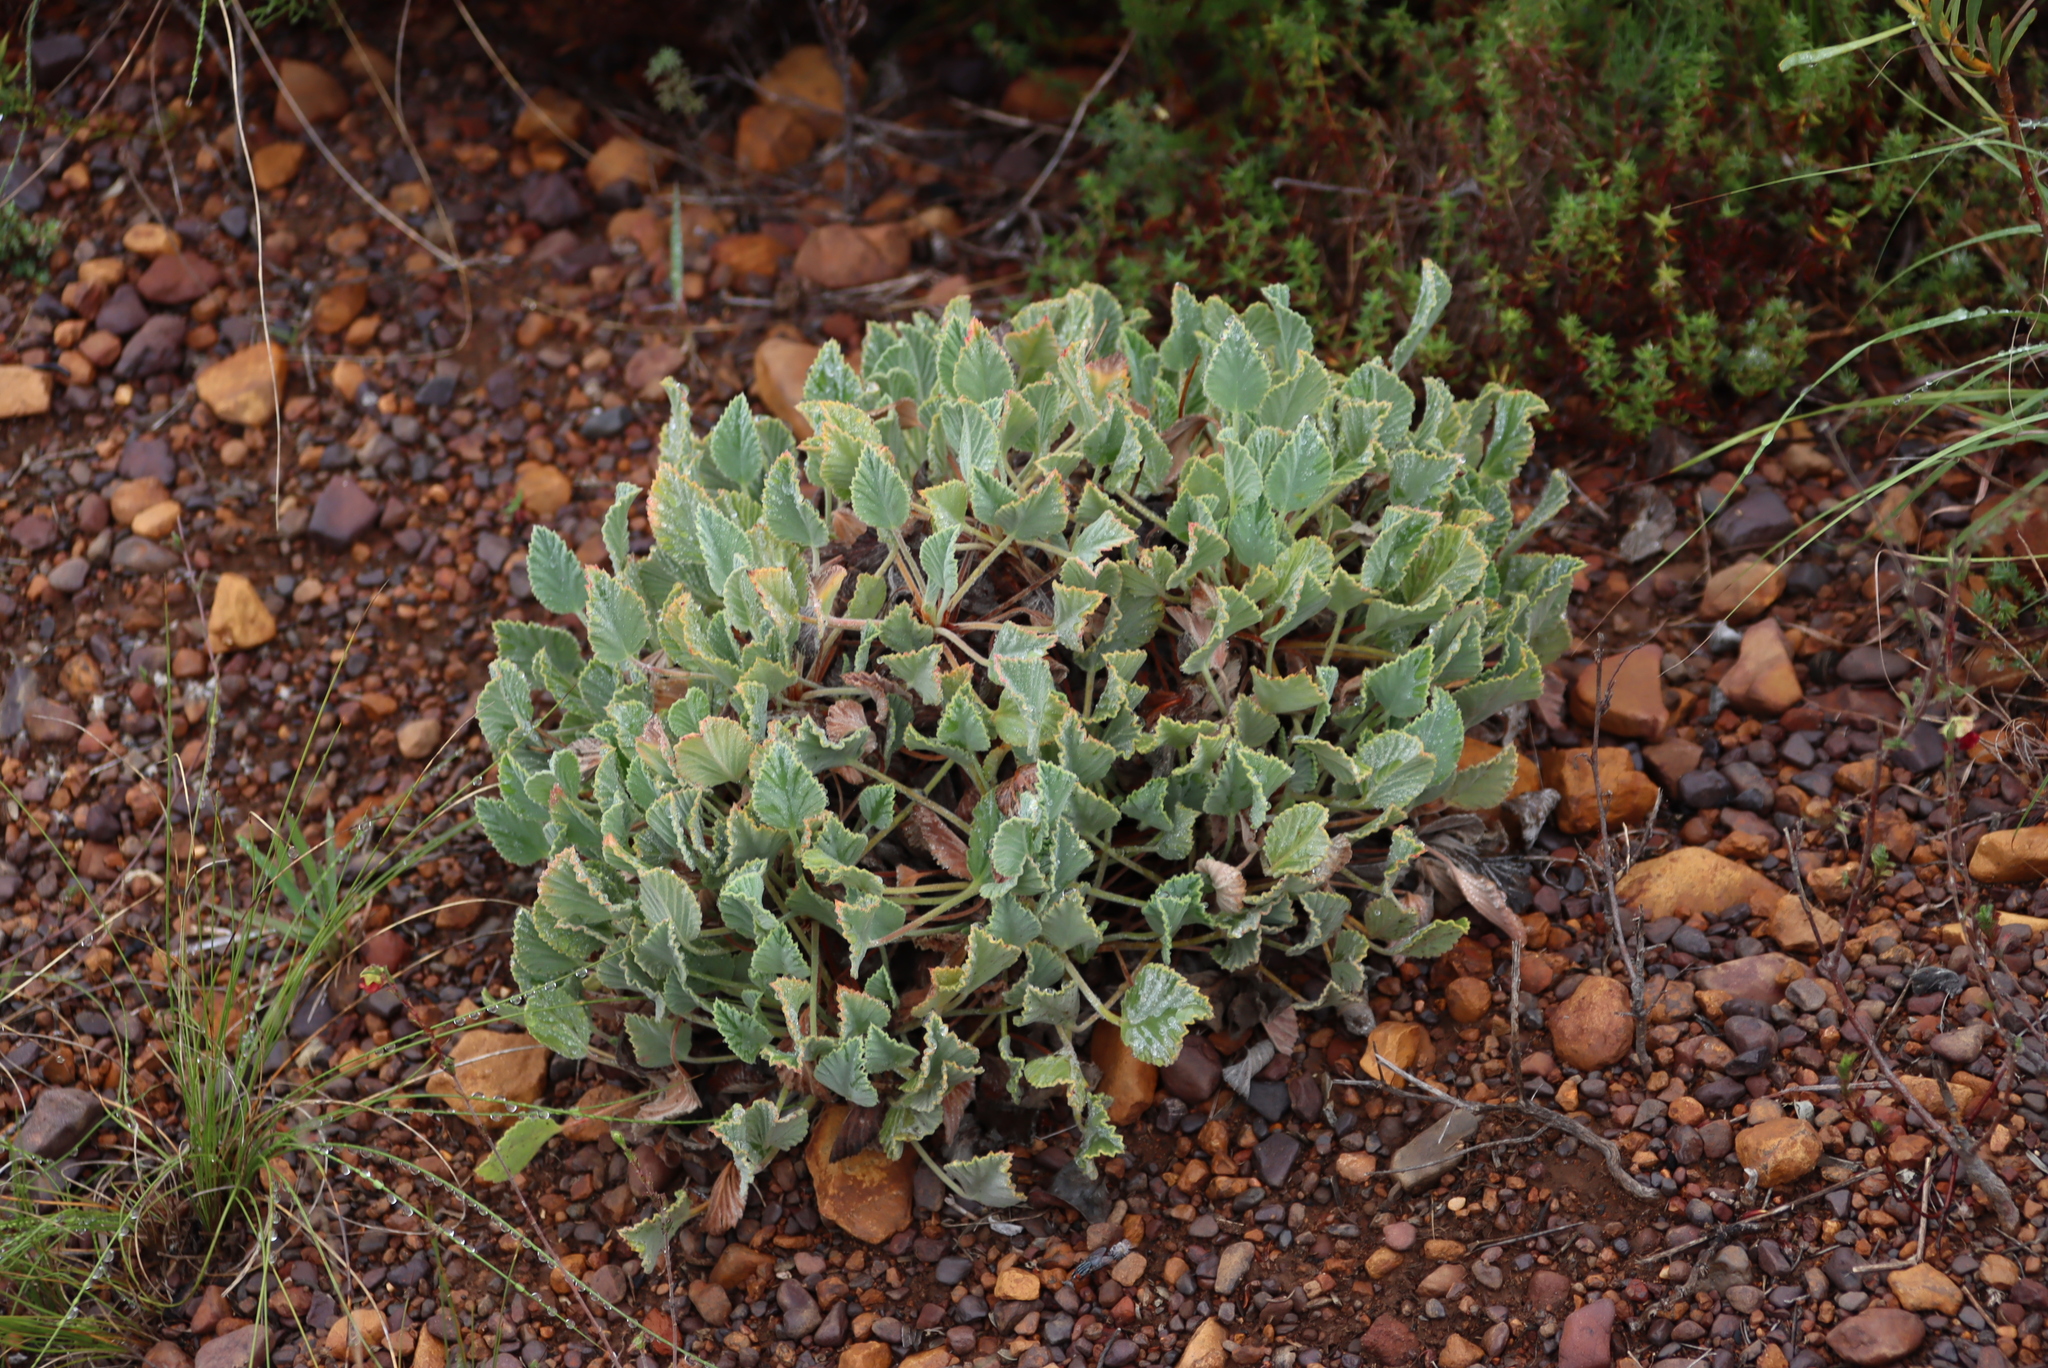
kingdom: Plantae
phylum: Tracheophyta
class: Magnoliopsida
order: Geraniales
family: Geraniaceae
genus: Pelargonium
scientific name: Pelargonium ovale
